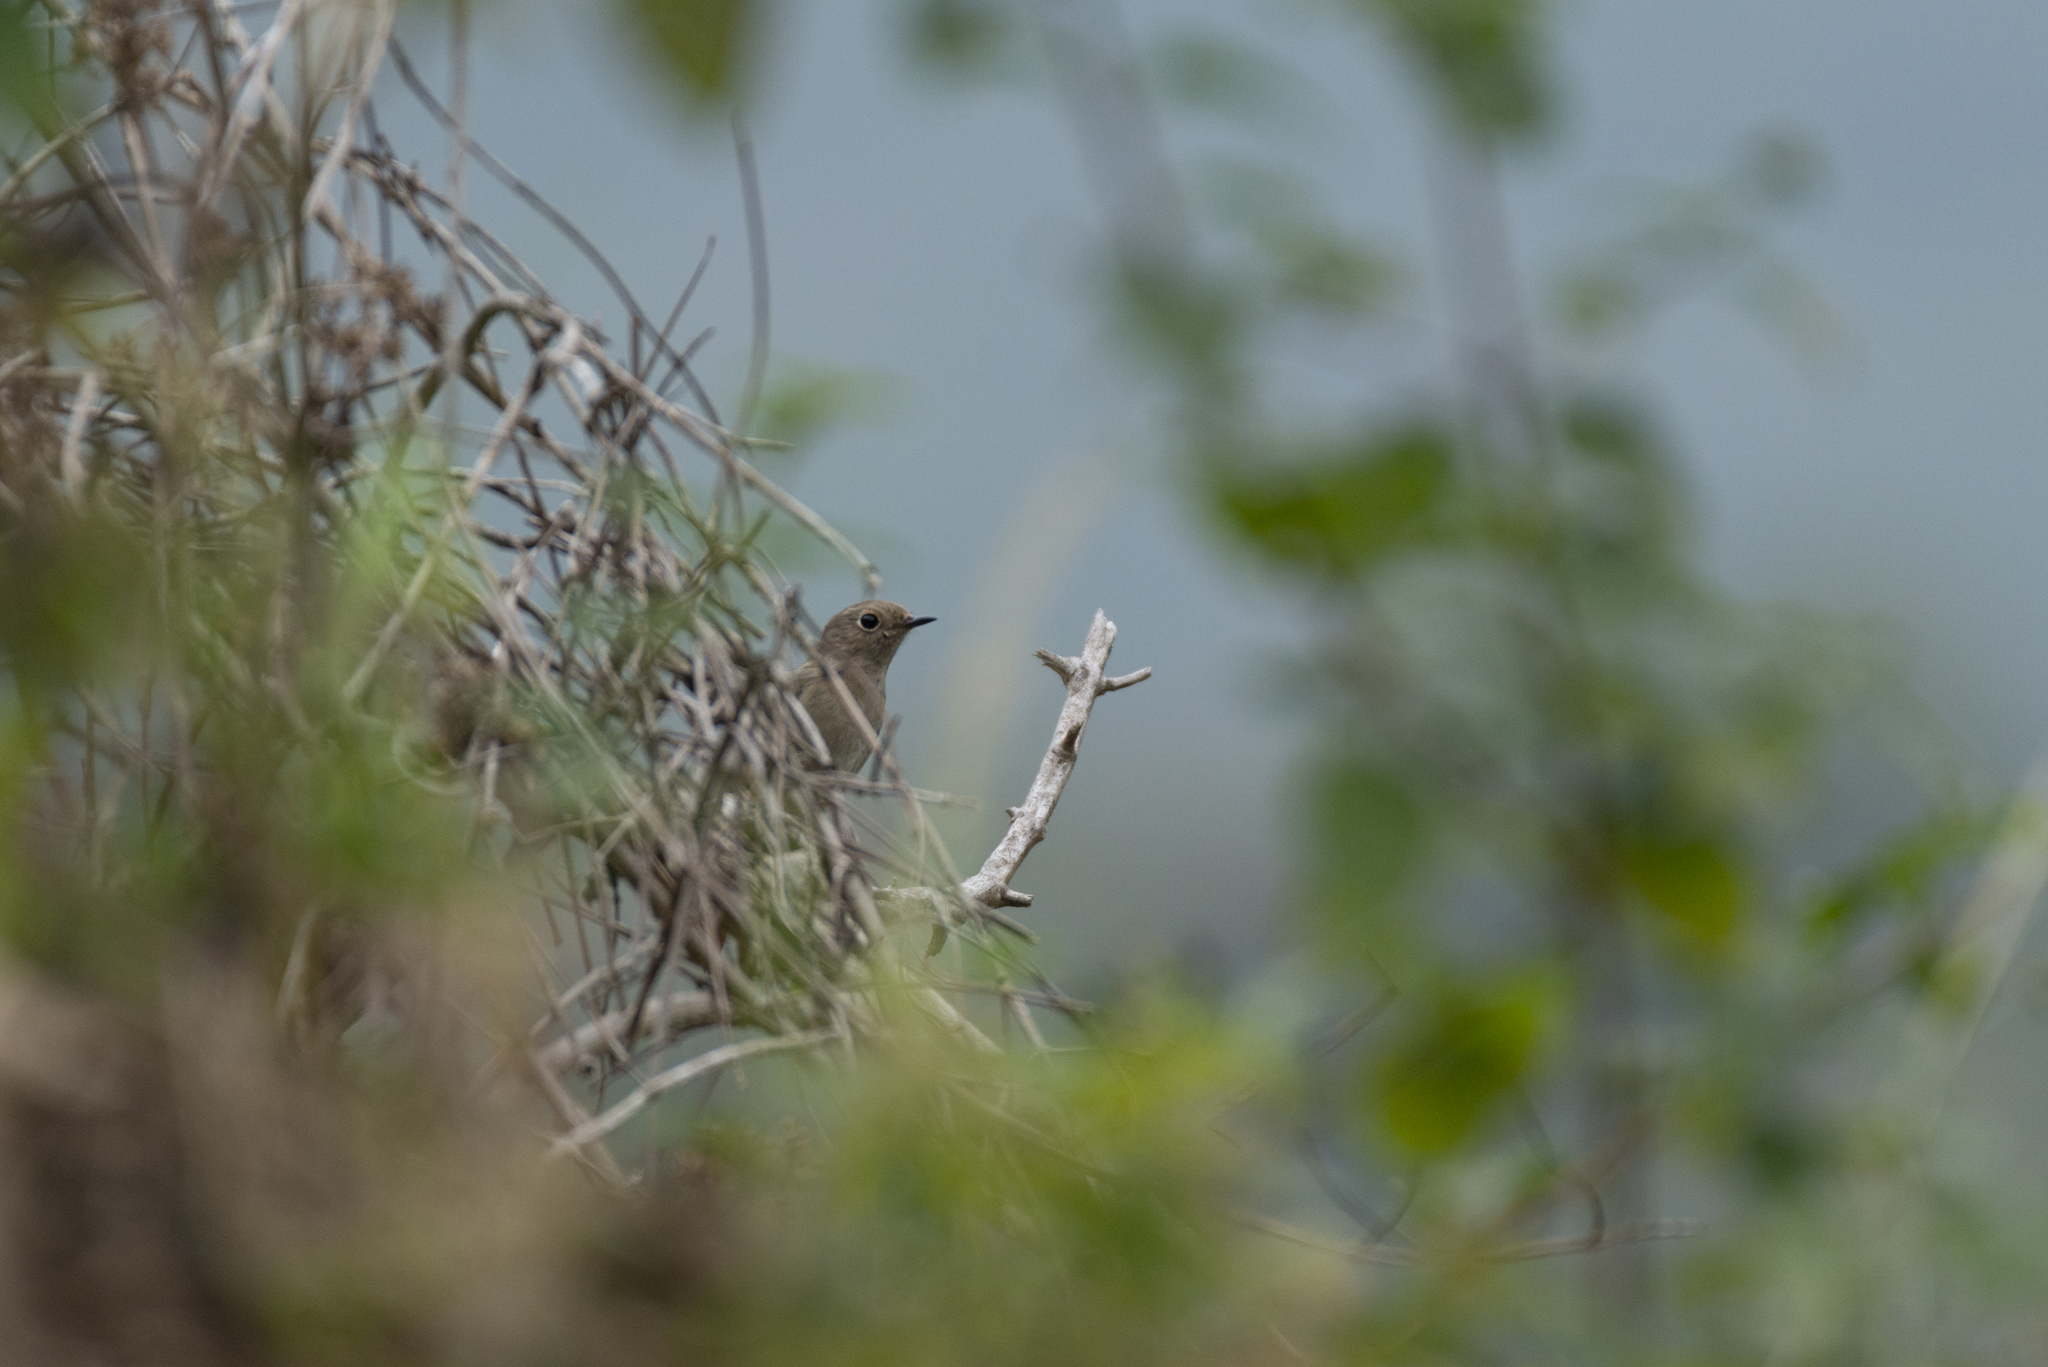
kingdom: Animalia
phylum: Chordata
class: Aves
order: Passeriformes
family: Muscicapidae
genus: Phoenicurus
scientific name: Phoenicurus auroreus
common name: Daurian redstart
